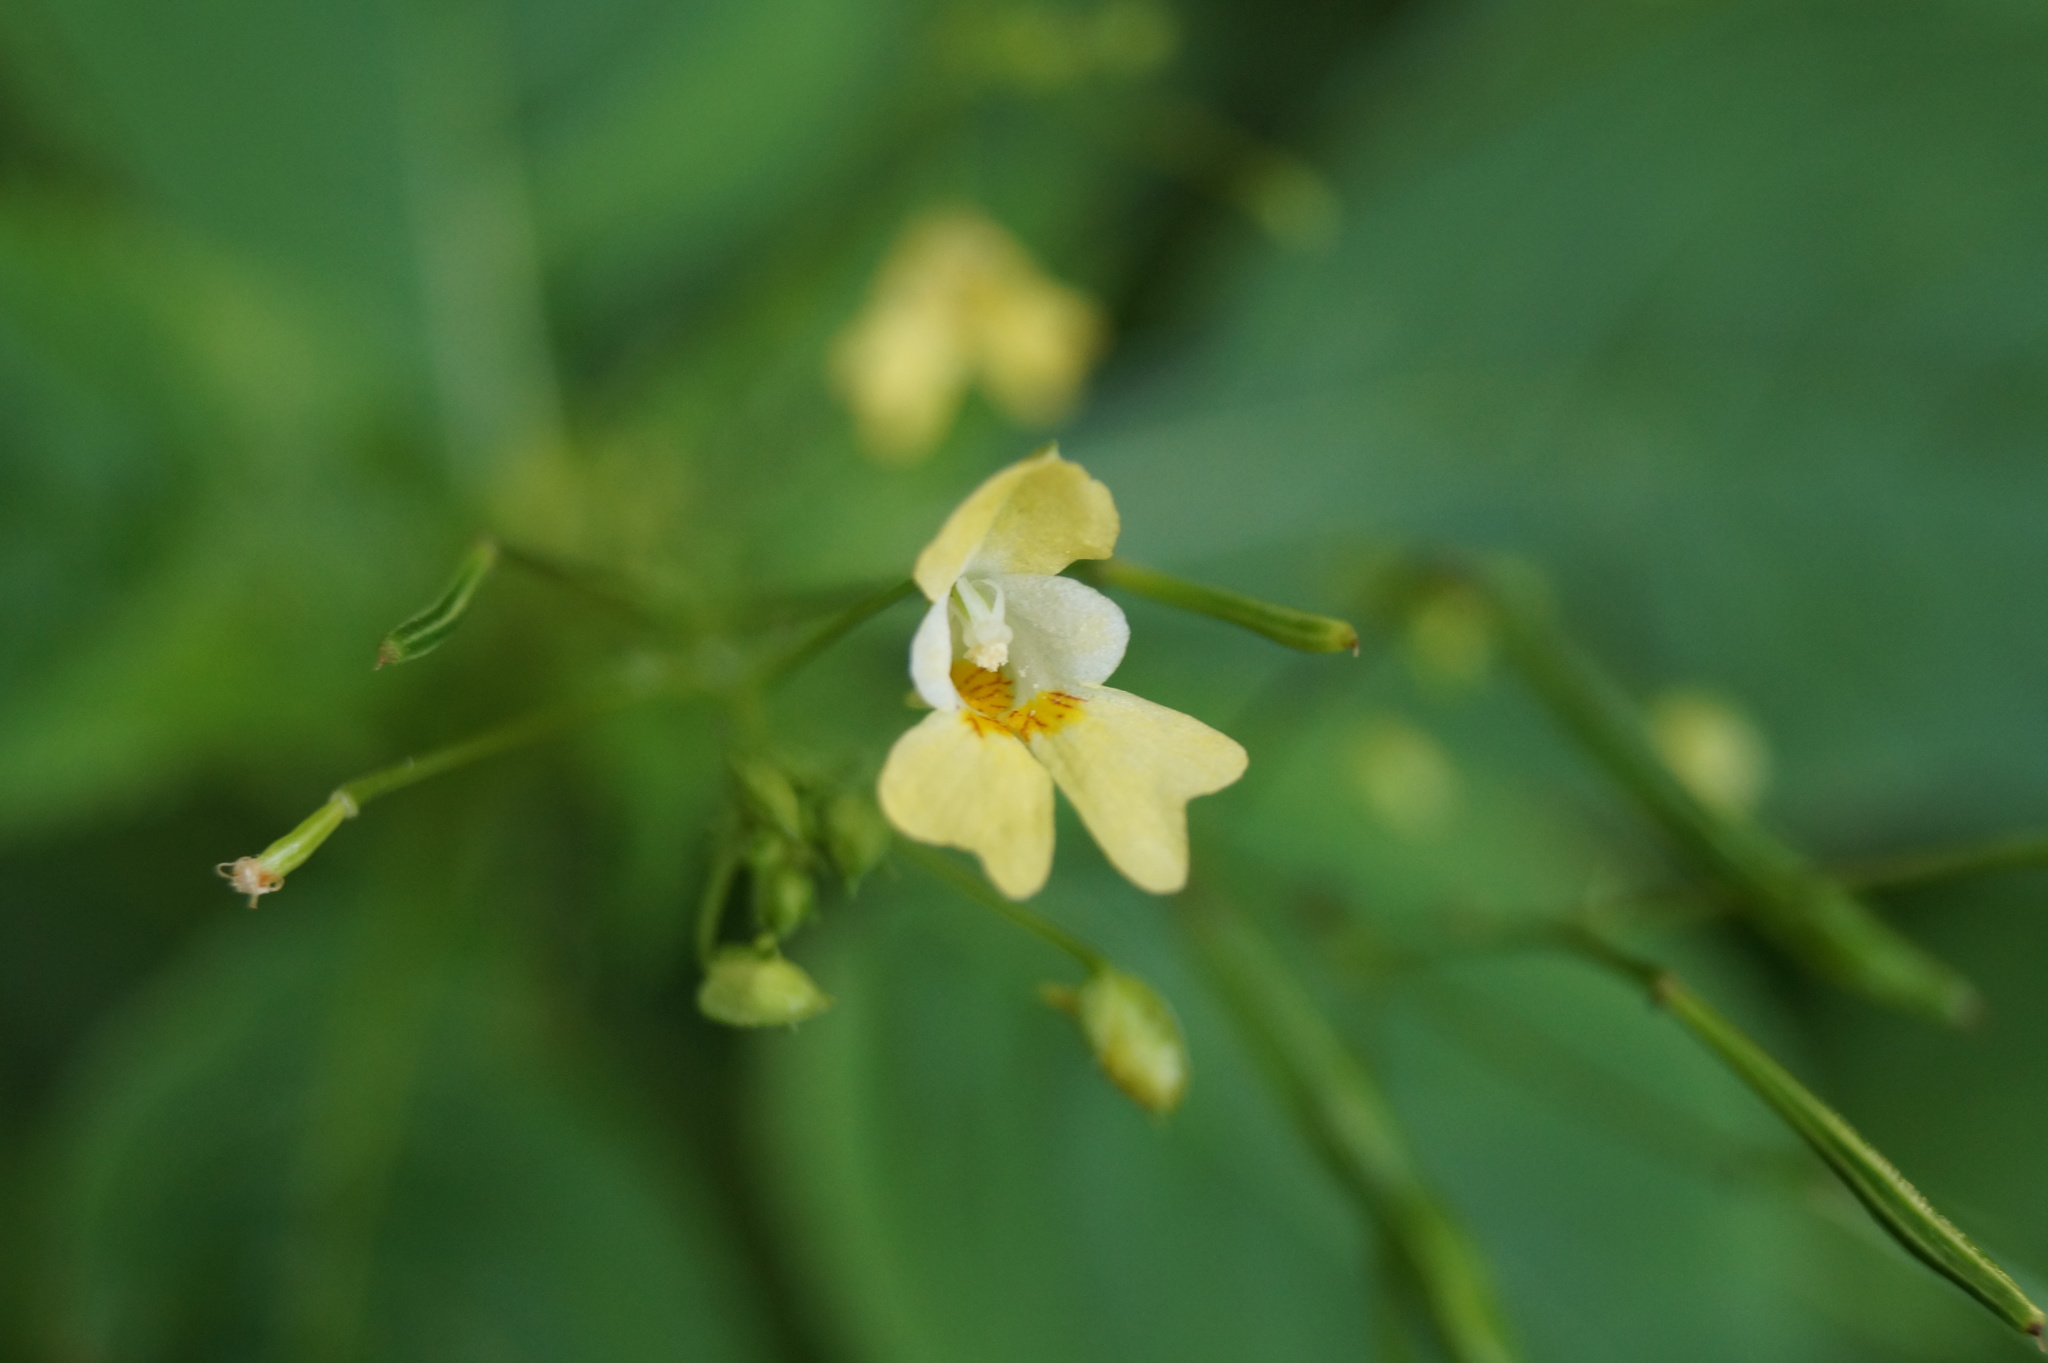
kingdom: Plantae
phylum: Tracheophyta
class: Magnoliopsida
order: Ericales
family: Balsaminaceae
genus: Impatiens
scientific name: Impatiens parviflora
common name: Small balsam
